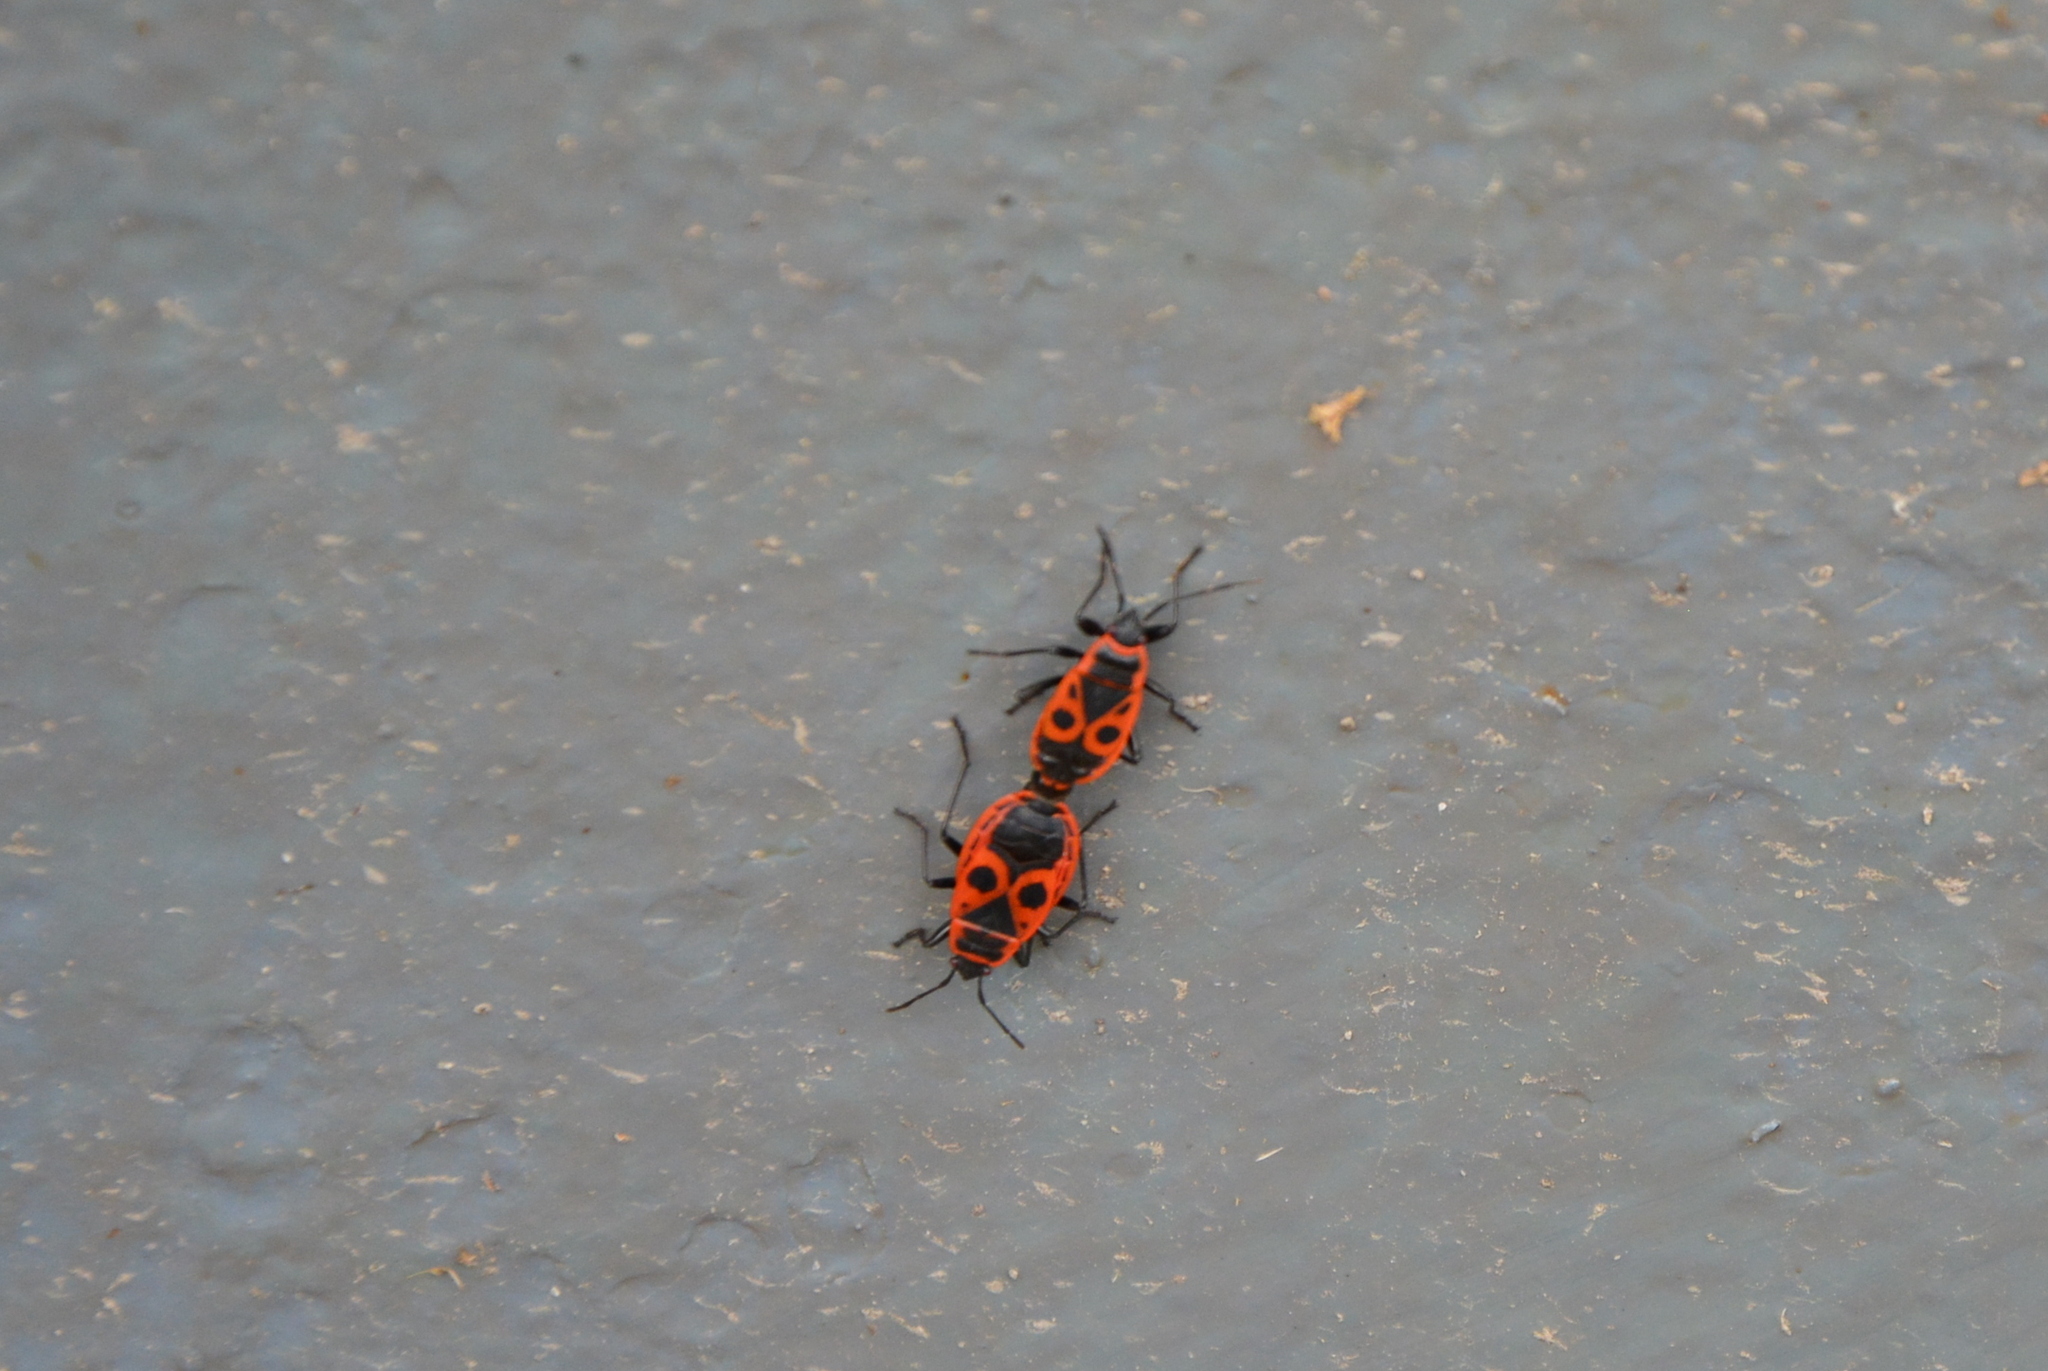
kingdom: Animalia
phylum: Arthropoda
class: Insecta
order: Hemiptera
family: Pyrrhocoridae
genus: Pyrrhocoris
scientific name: Pyrrhocoris apterus
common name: Firebug
